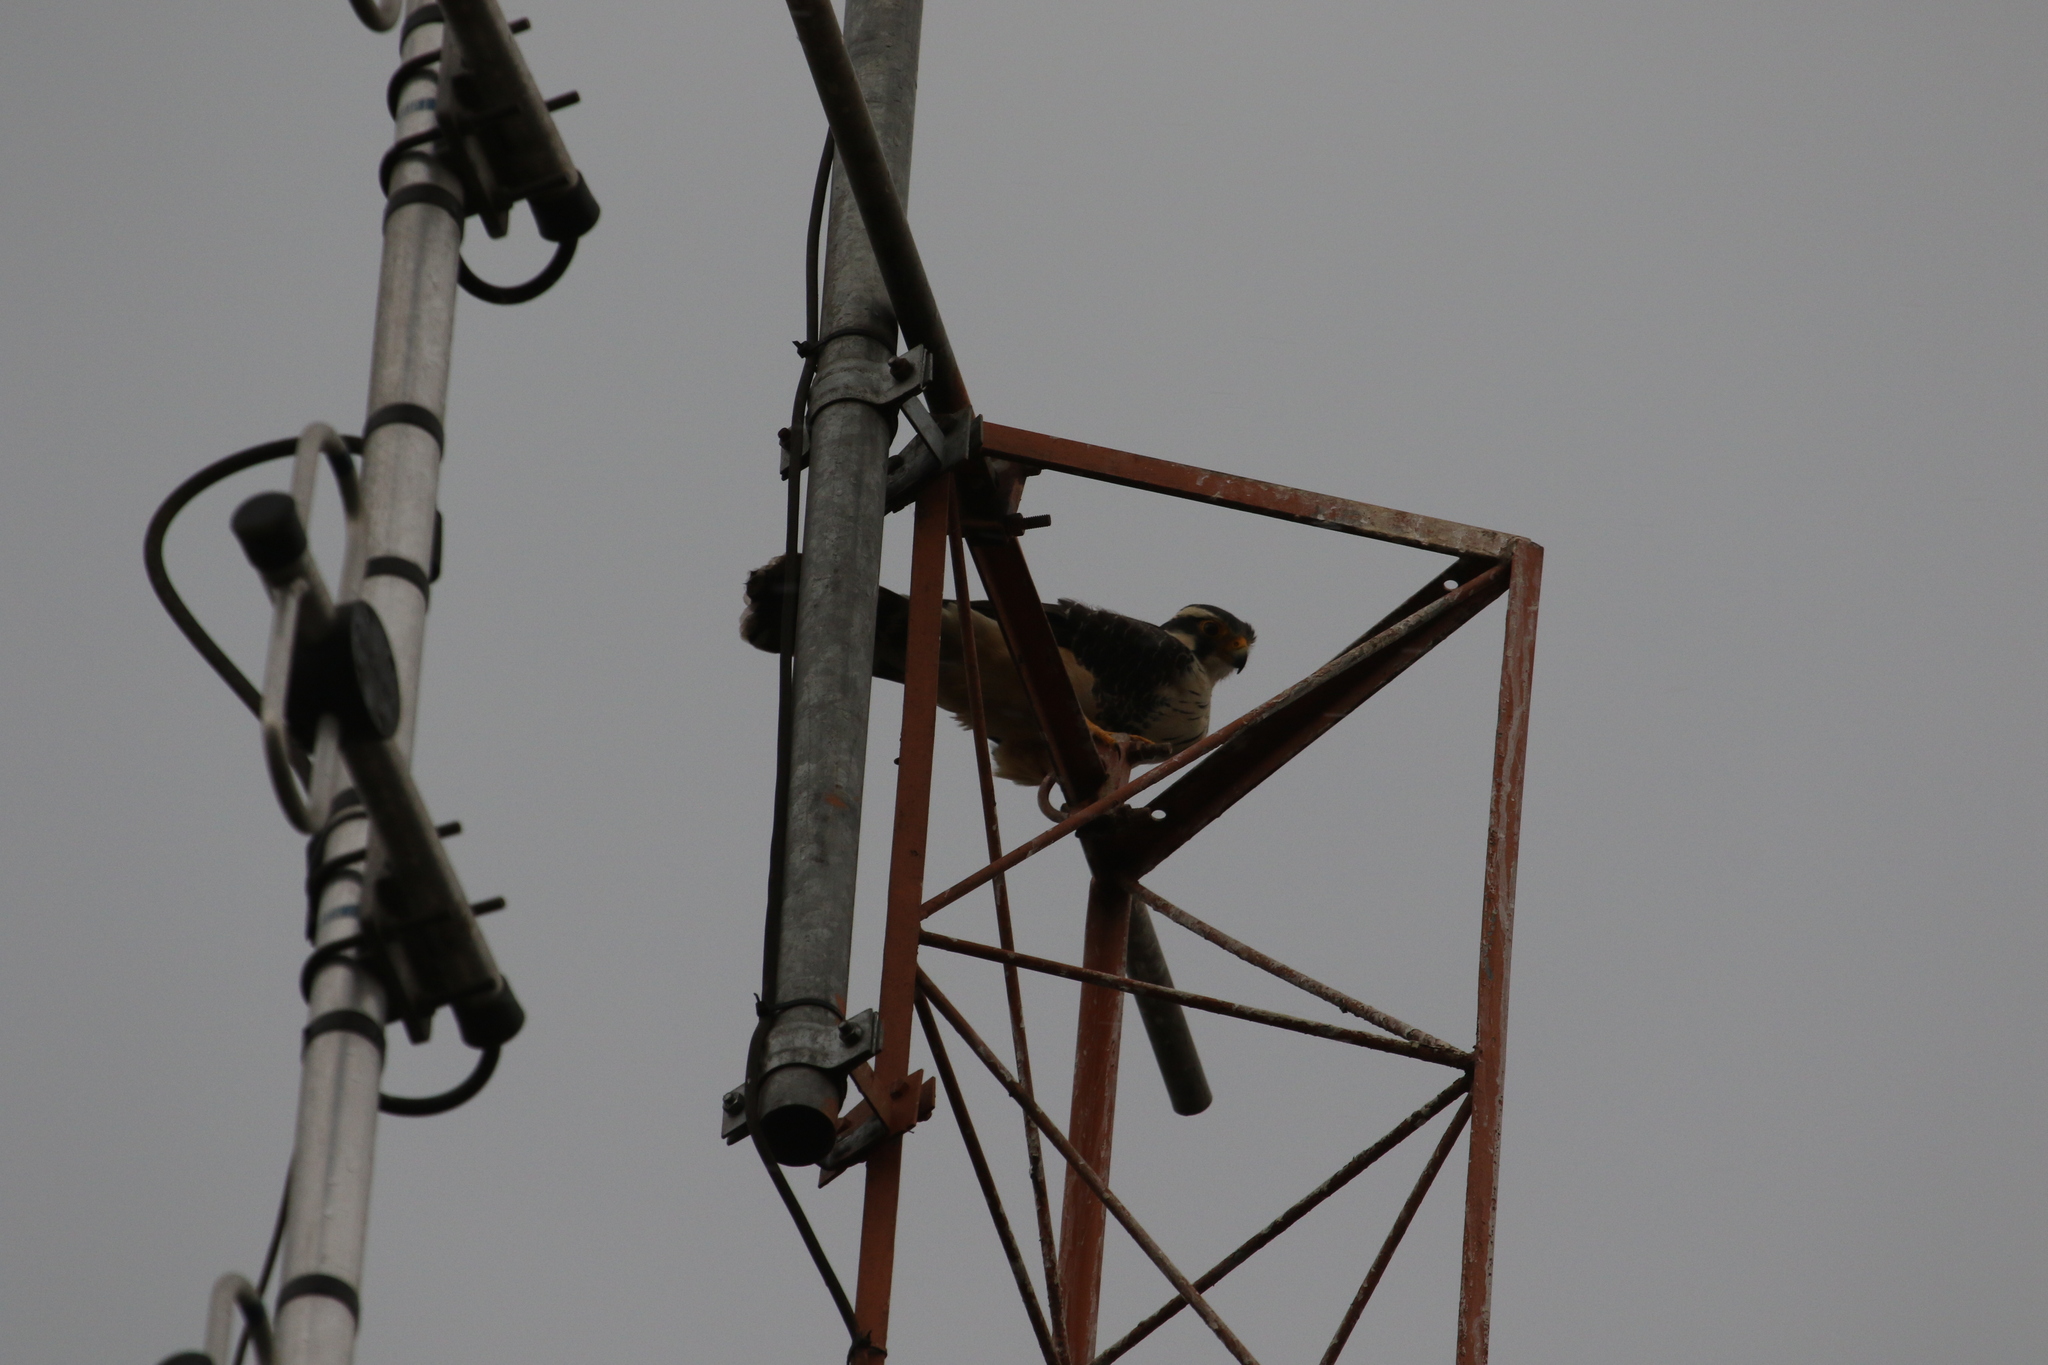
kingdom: Animalia
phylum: Chordata
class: Aves
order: Falconiformes
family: Falconidae
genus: Falco
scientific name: Falco femoralis
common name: Aplomado falcon
